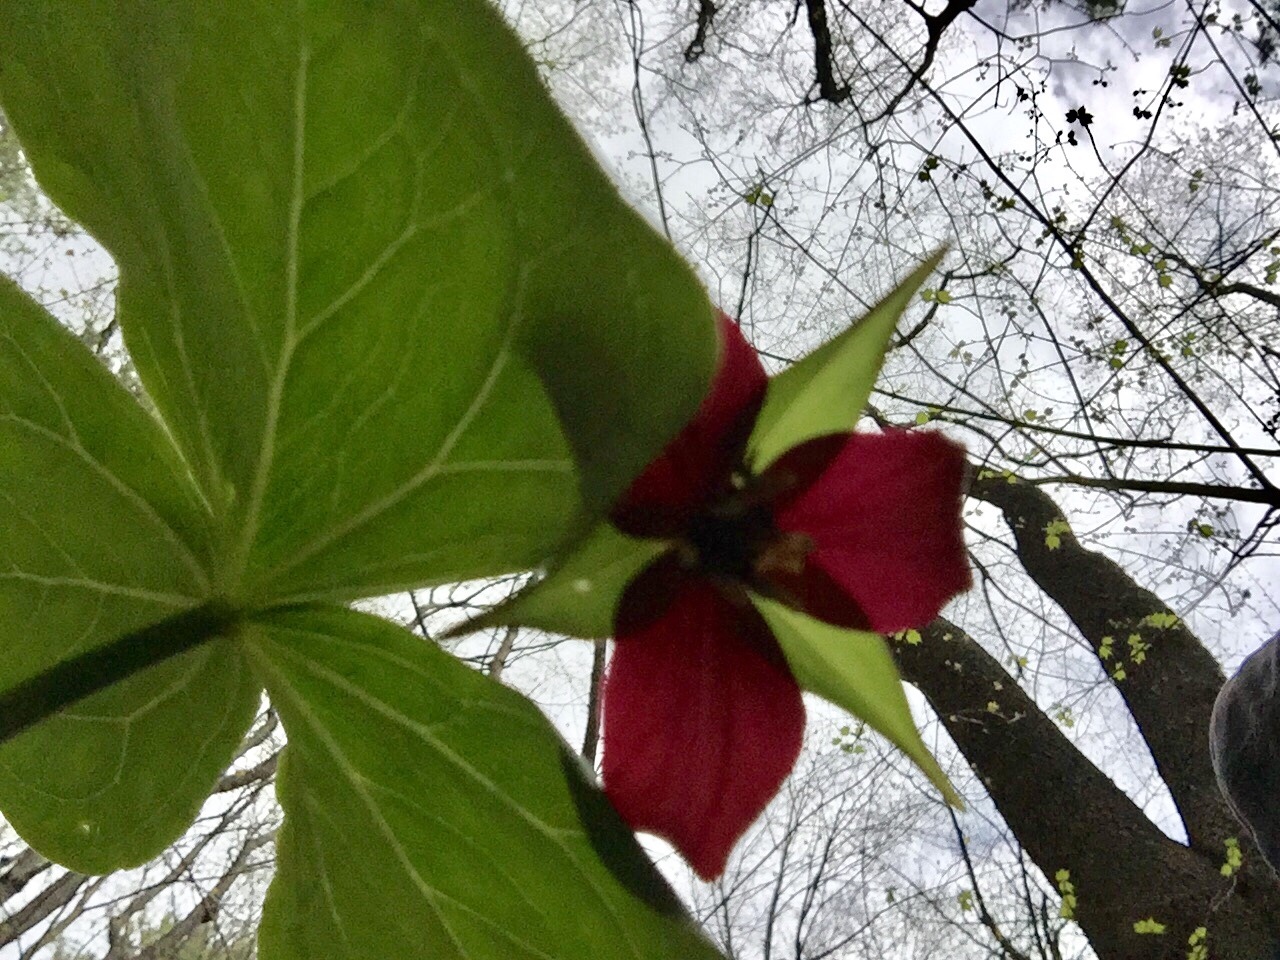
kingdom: Plantae
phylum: Tracheophyta
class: Liliopsida
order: Liliales
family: Melanthiaceae
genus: Trillium
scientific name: Trillium erectum
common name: Purple trillium
